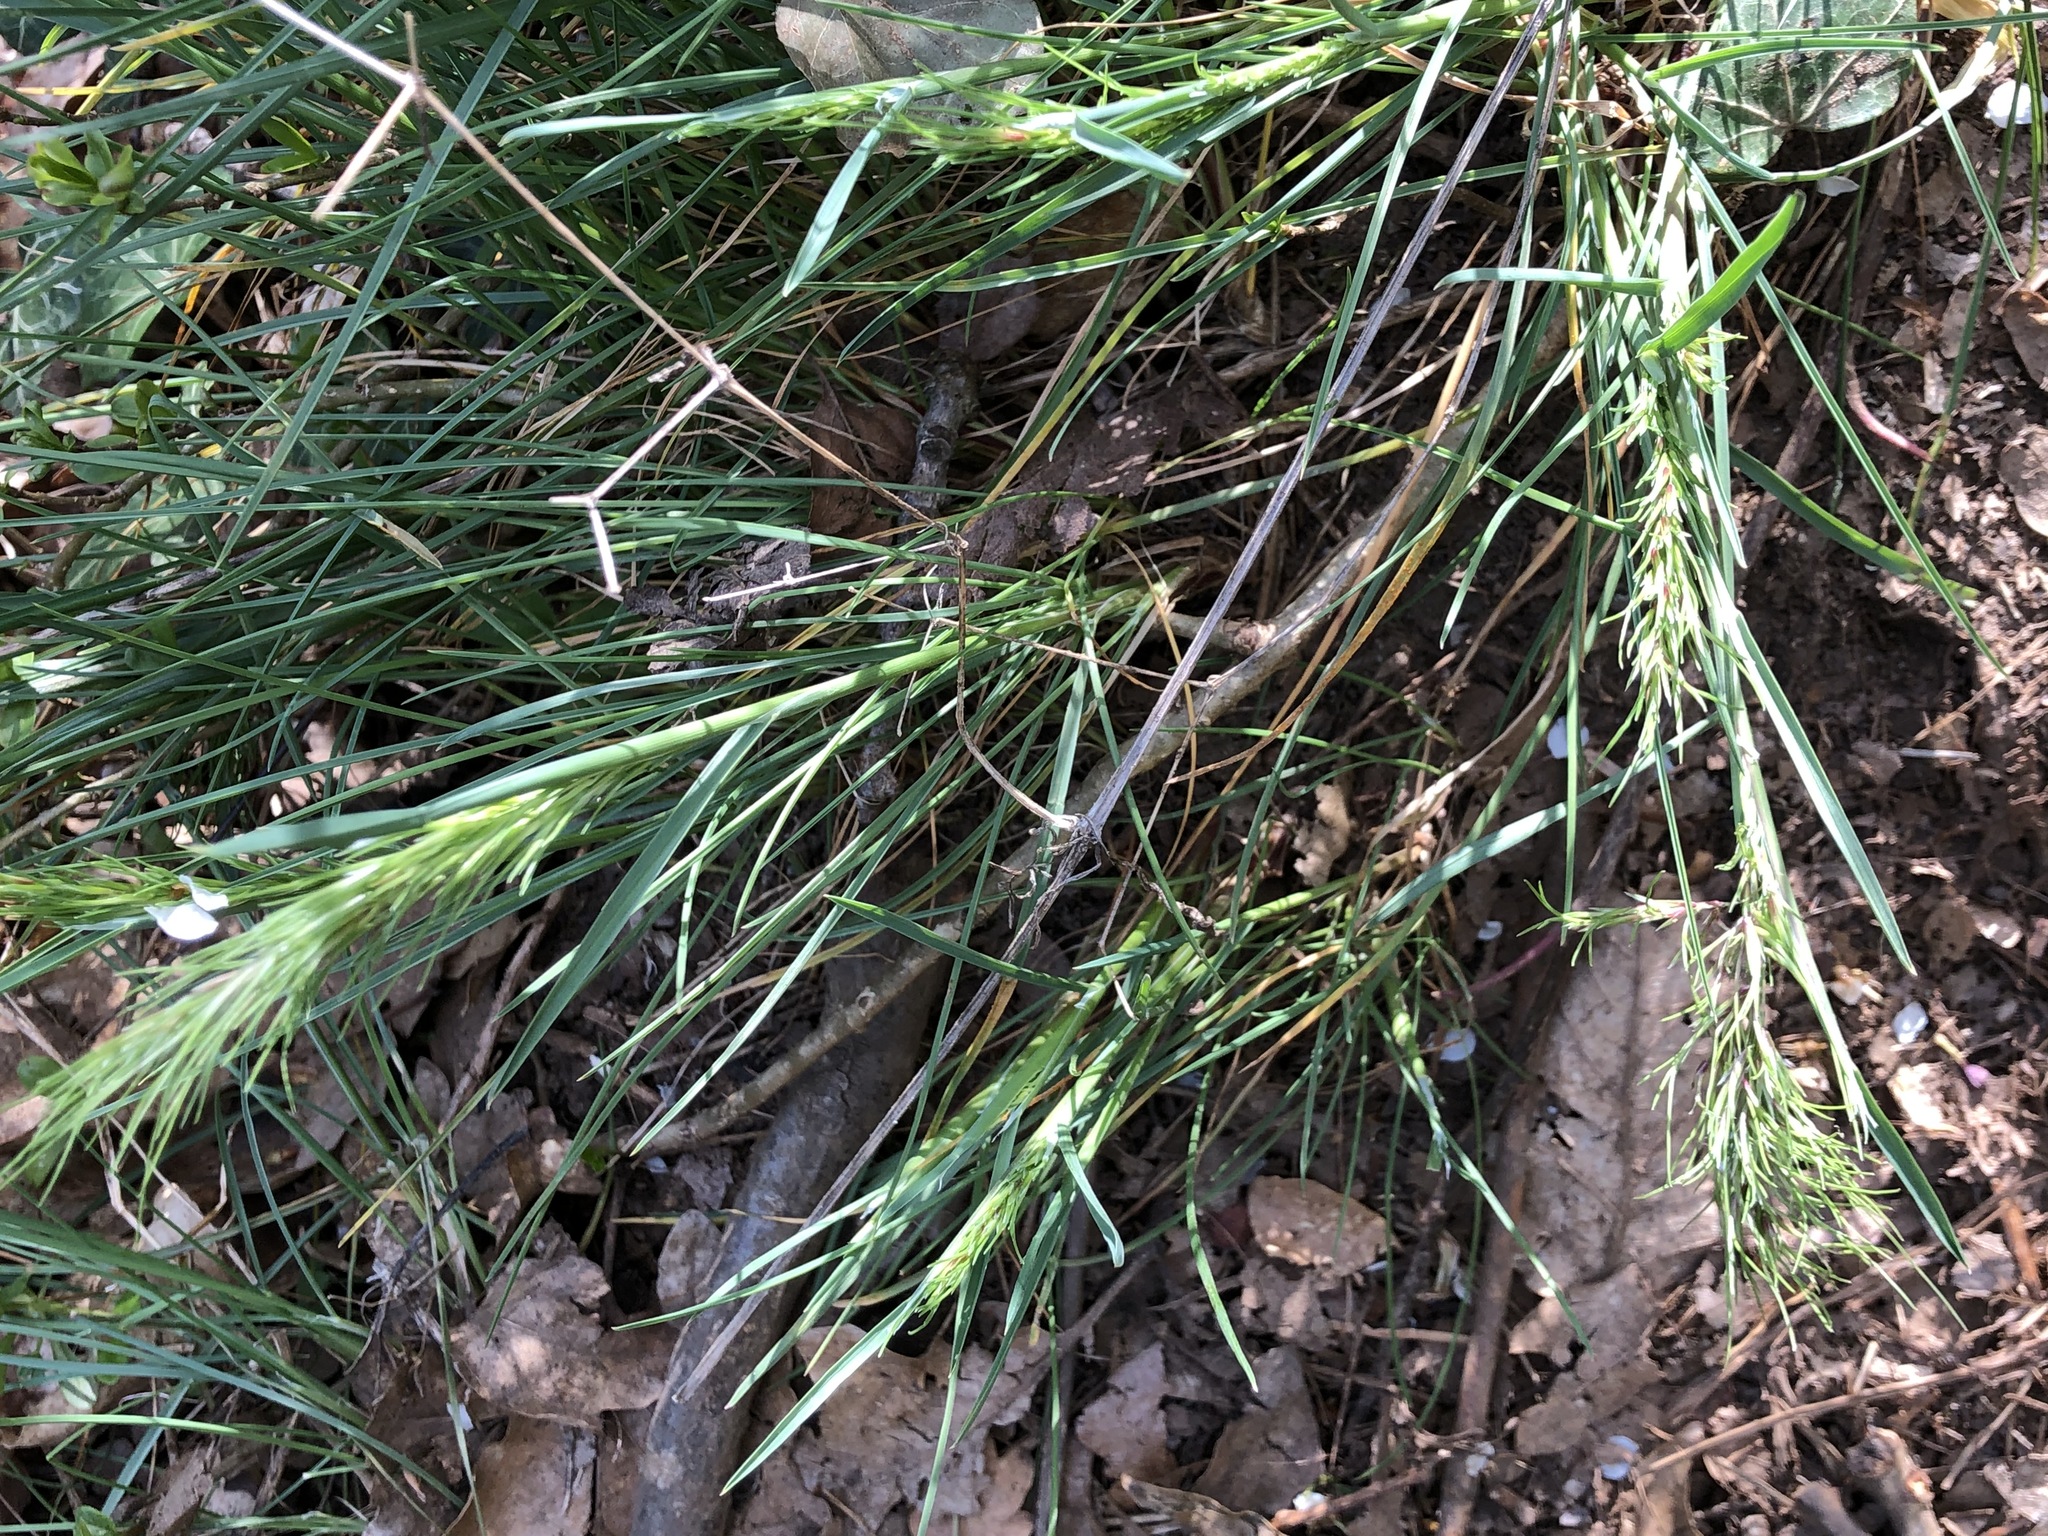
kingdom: Plantae
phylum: Tracheophyta
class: Liliopsida
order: Poales
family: Poaceae
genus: Poa
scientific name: Poa bulbosa
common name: Bulbous bluegrass
